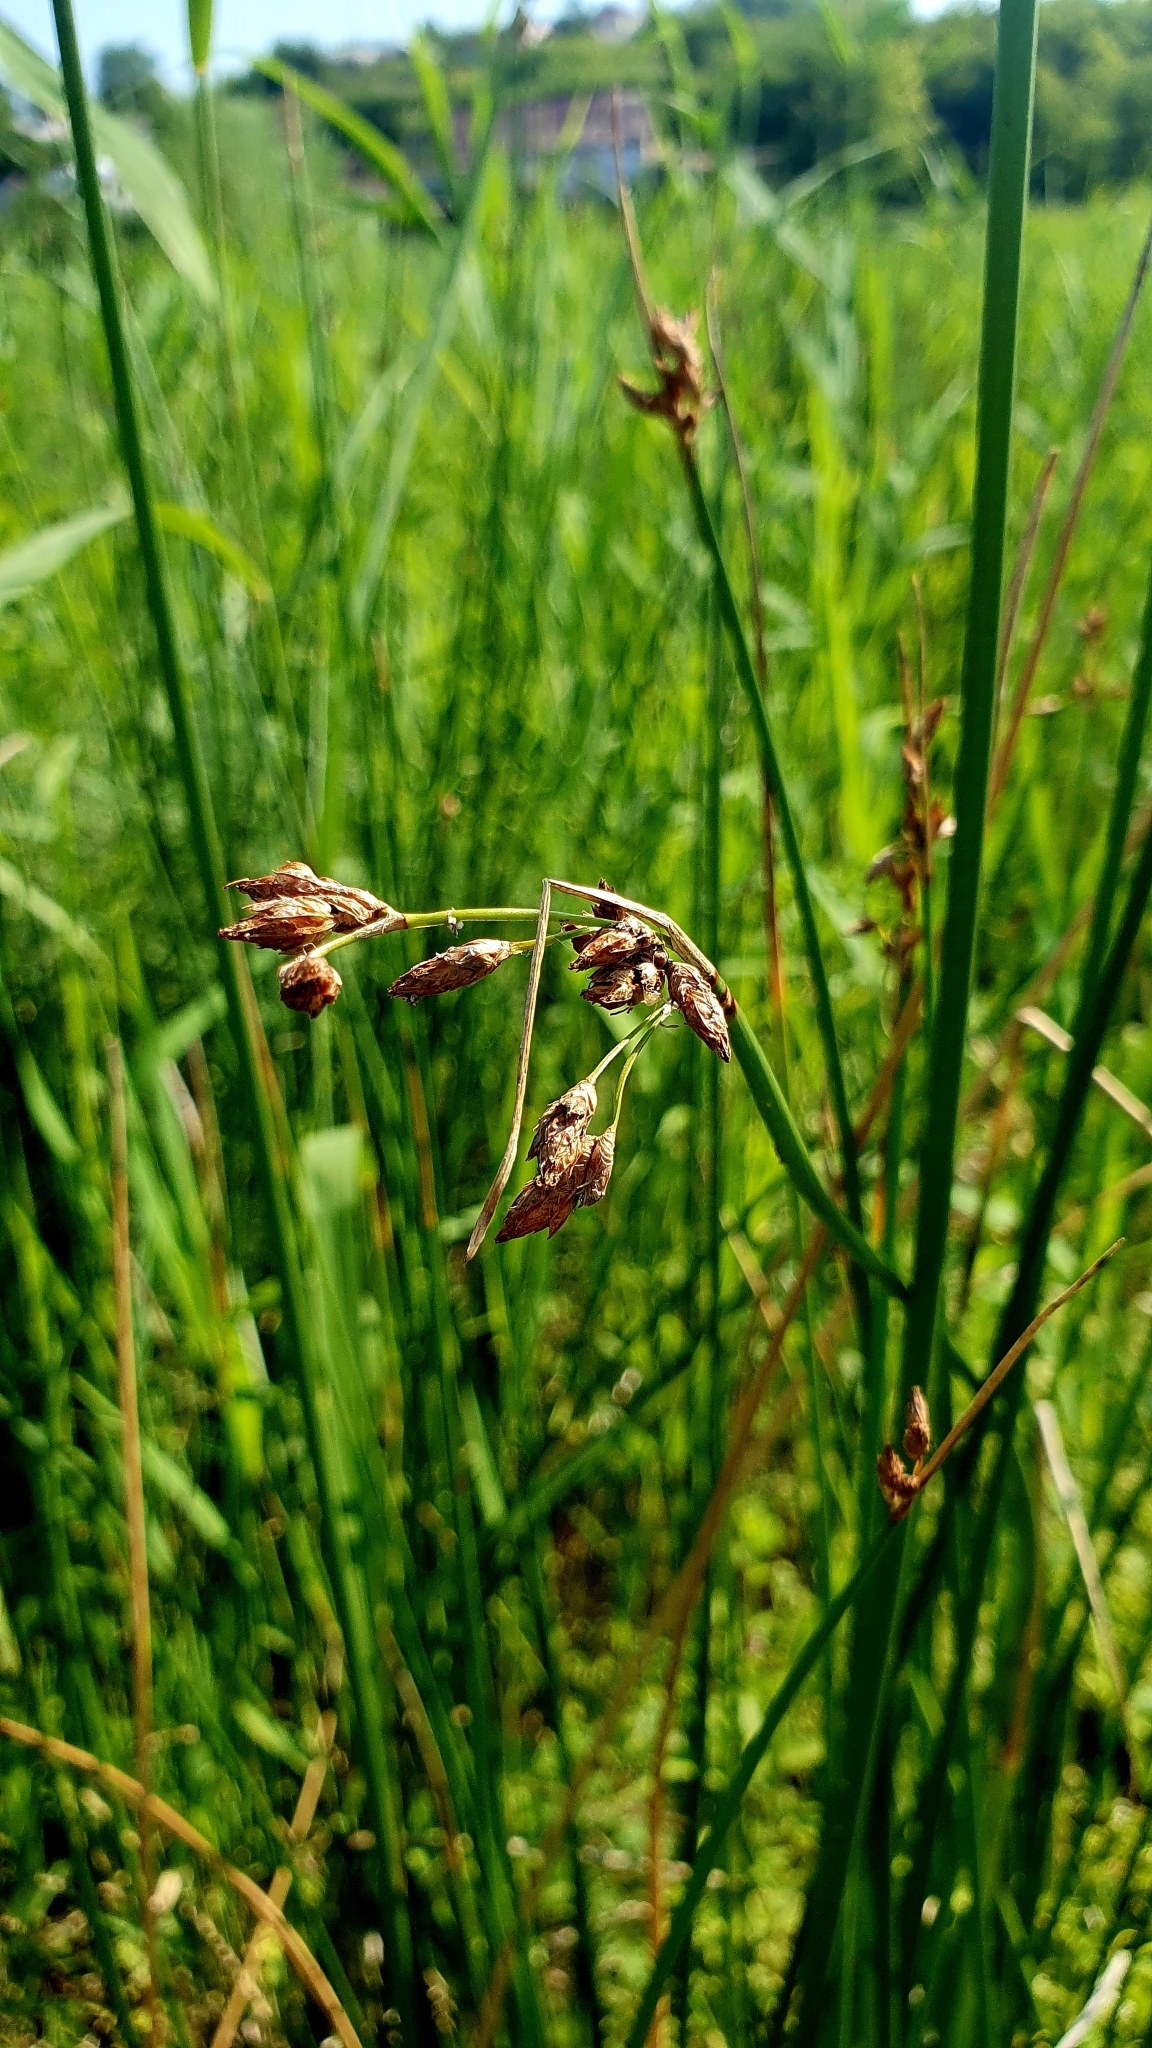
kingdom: Plantae
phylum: Tracheophyta
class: Liliopsida
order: Poales
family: Cyperaceae
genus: Schoenoplectus
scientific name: Schoenoplectus lacustris
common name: Common club-rush
